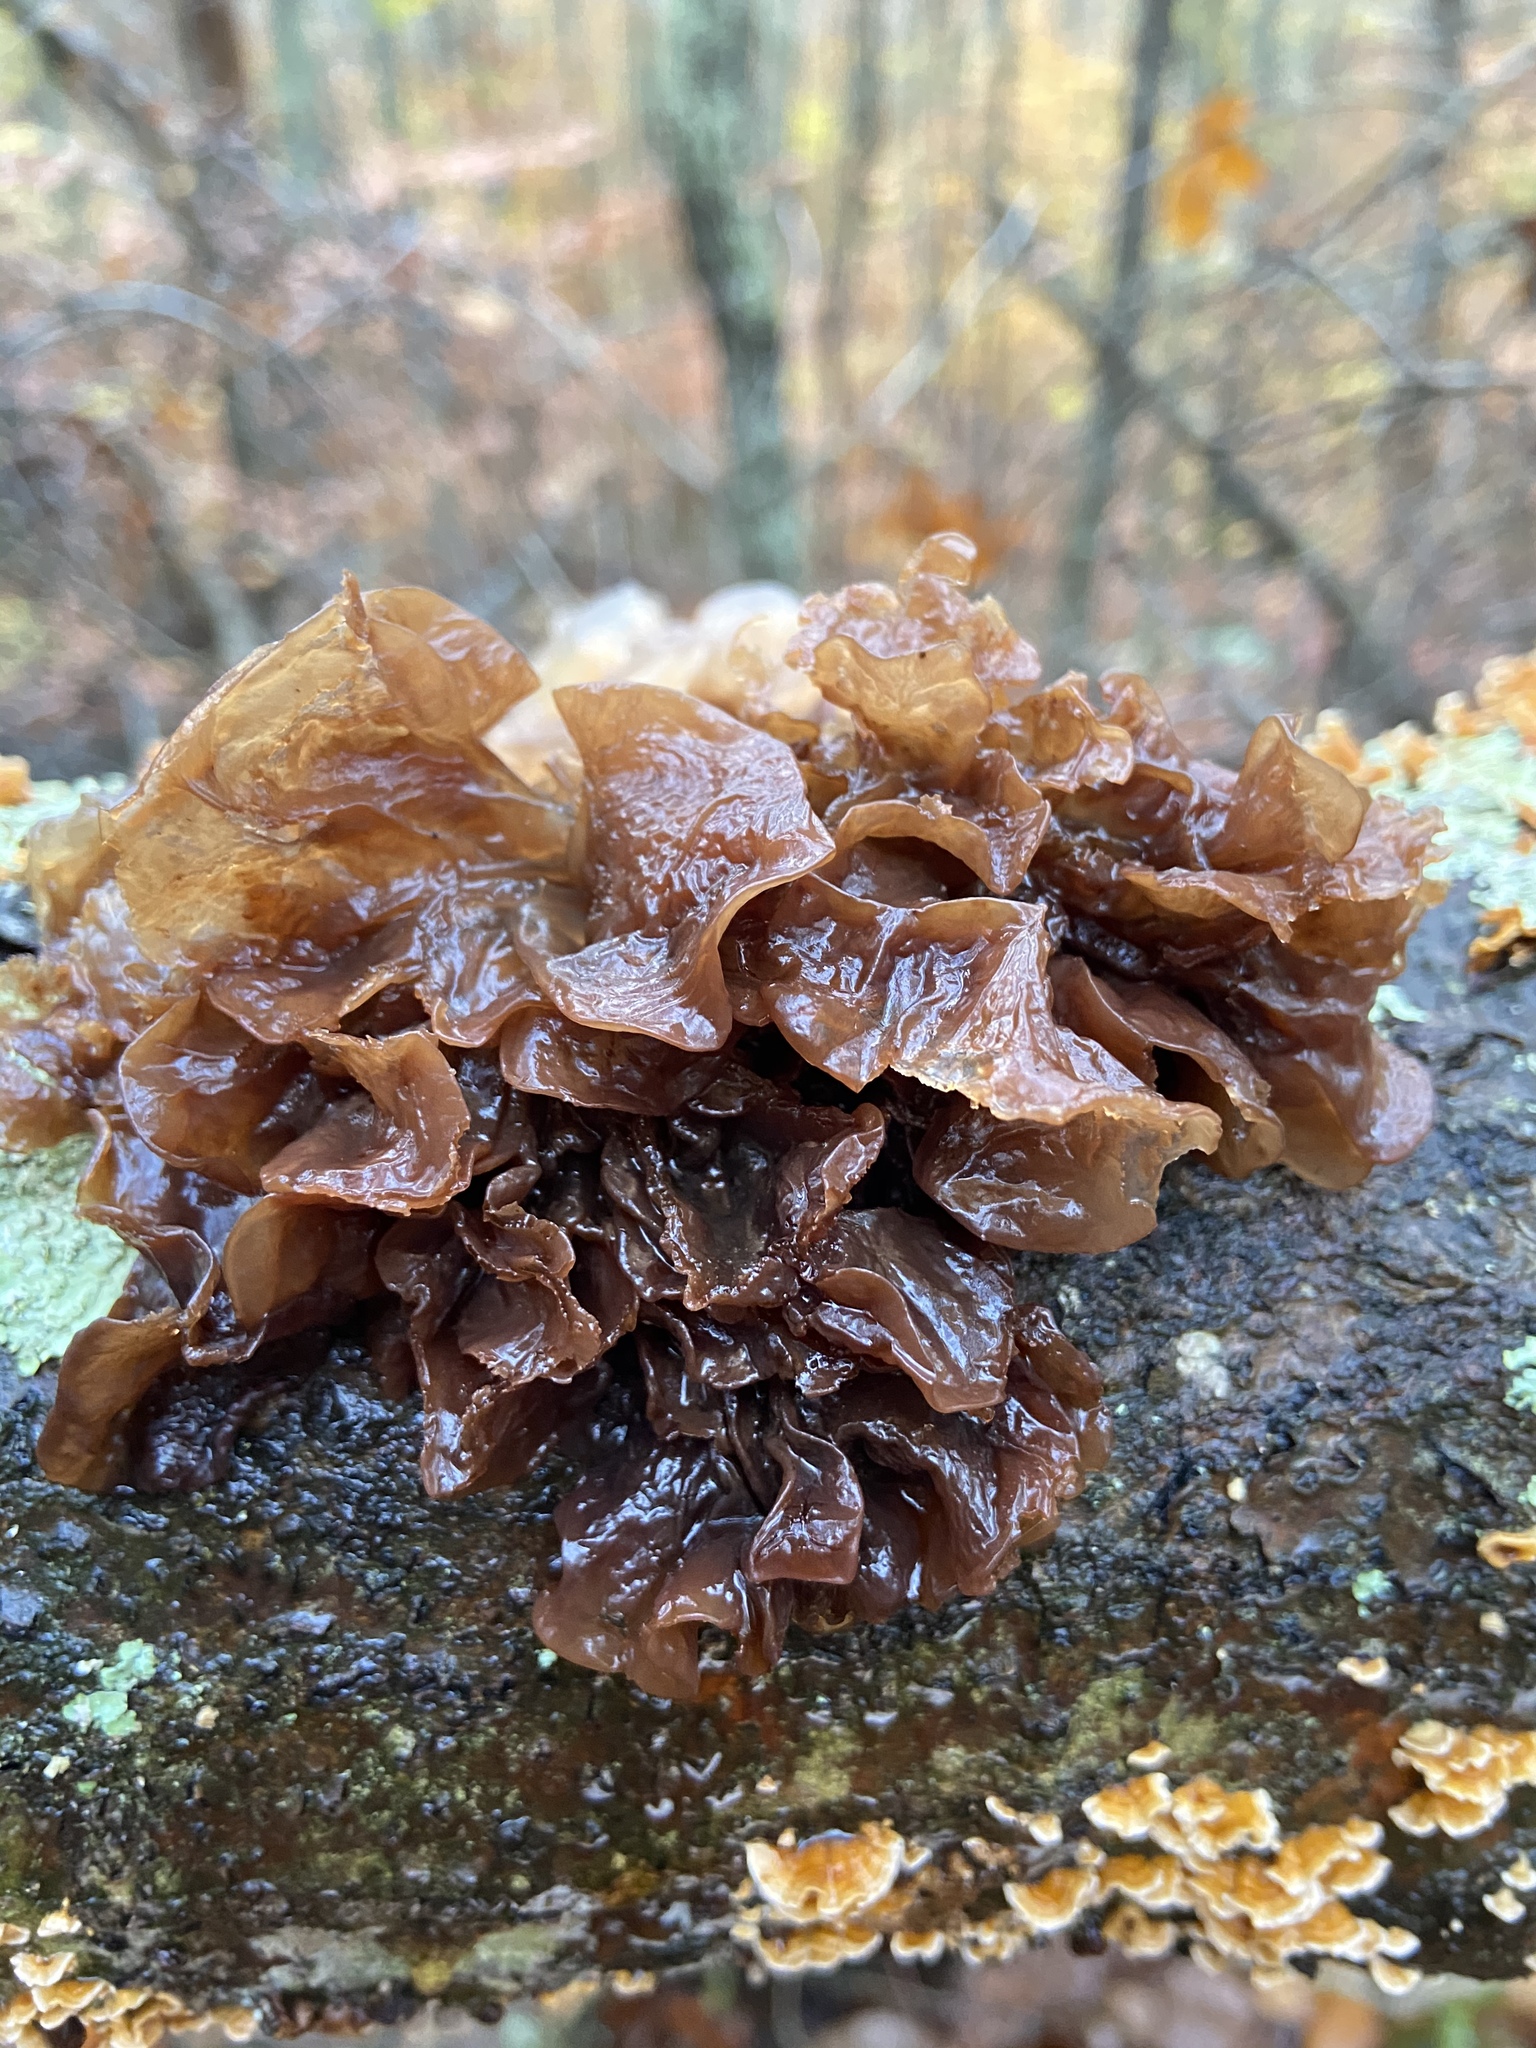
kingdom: Fungi
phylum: Basidiomycota
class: Tremellomycetes
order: Tremellales
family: Tremellaceae
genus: Phaeotremella
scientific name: Phaeotremella foliacea
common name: Leafy brain
